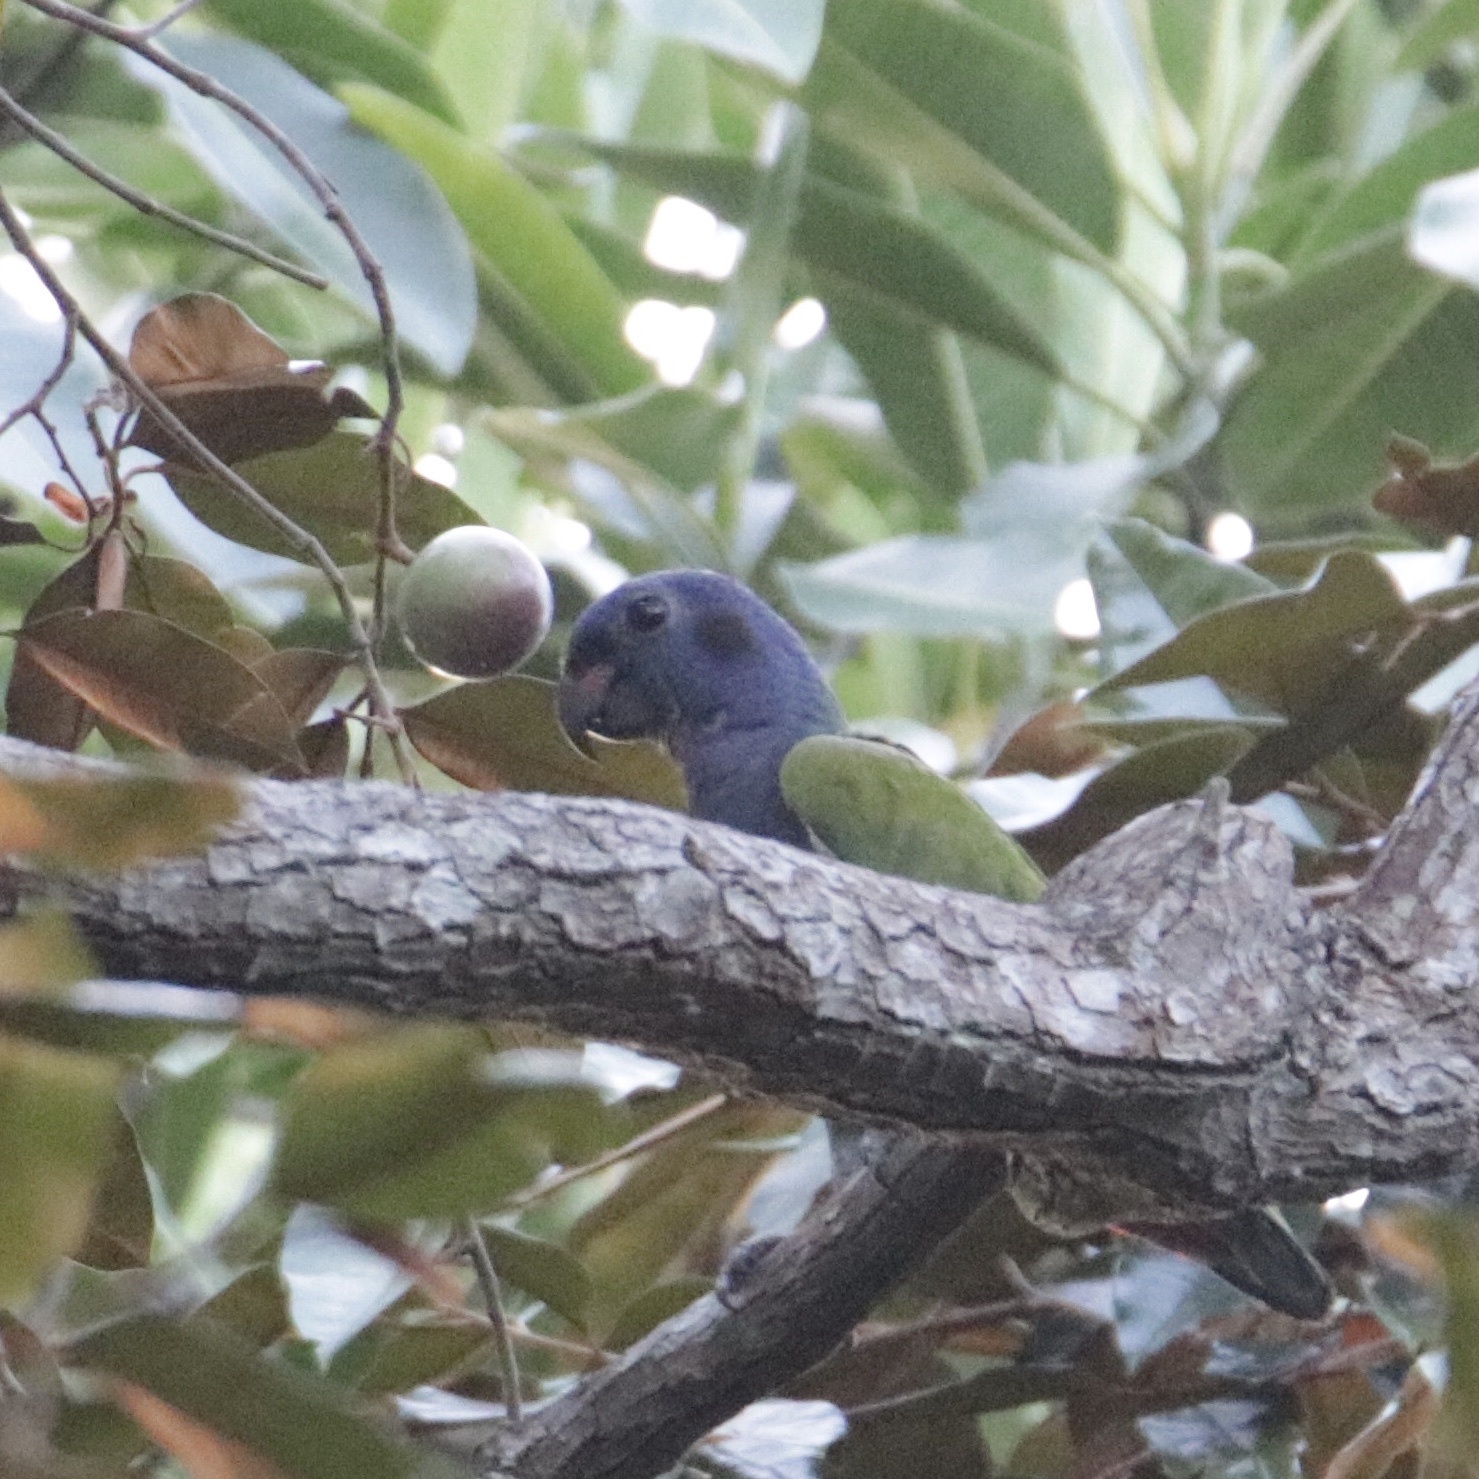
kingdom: Animalia
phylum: Chordata
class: Aves
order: Psittaciformes
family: Psittacidae
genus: Pionus
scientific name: Pionus menstruus
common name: Blue-headed parrot
